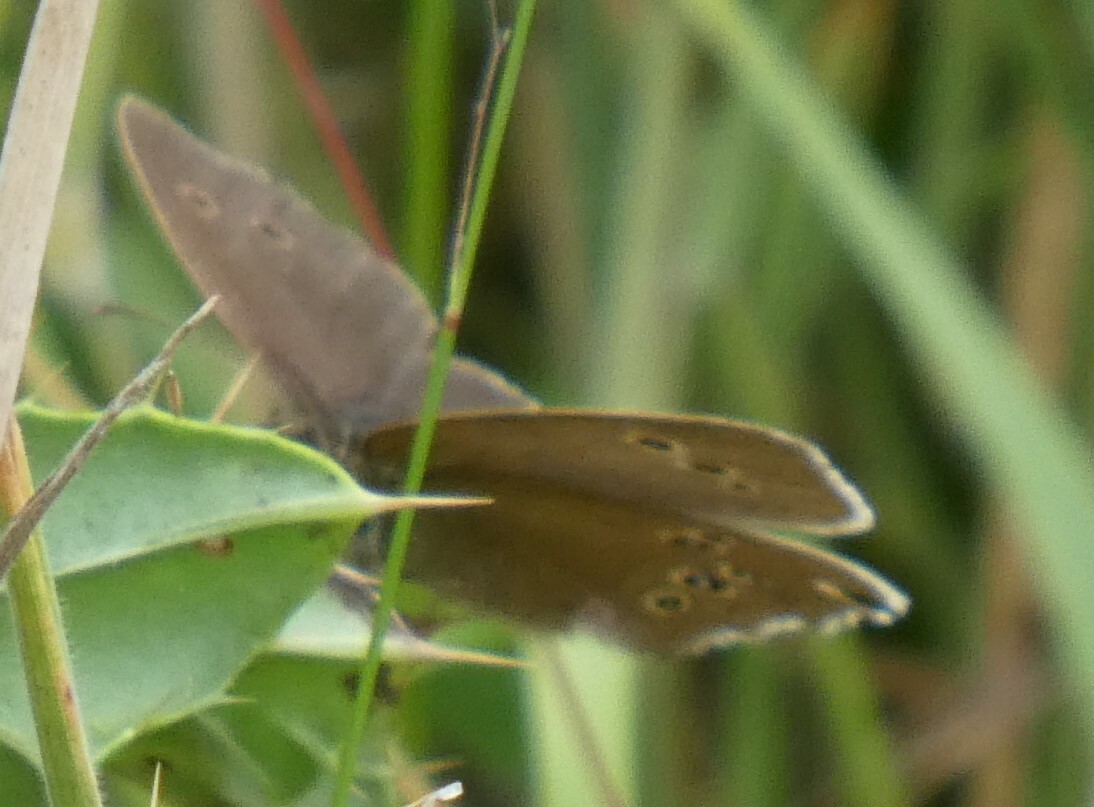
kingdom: Animalia
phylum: Arthropoda
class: Insecta
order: Lepidoptera
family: Nymphalidae
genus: Aphantopus
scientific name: Aphantopus hyperantus
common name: Ringlet
